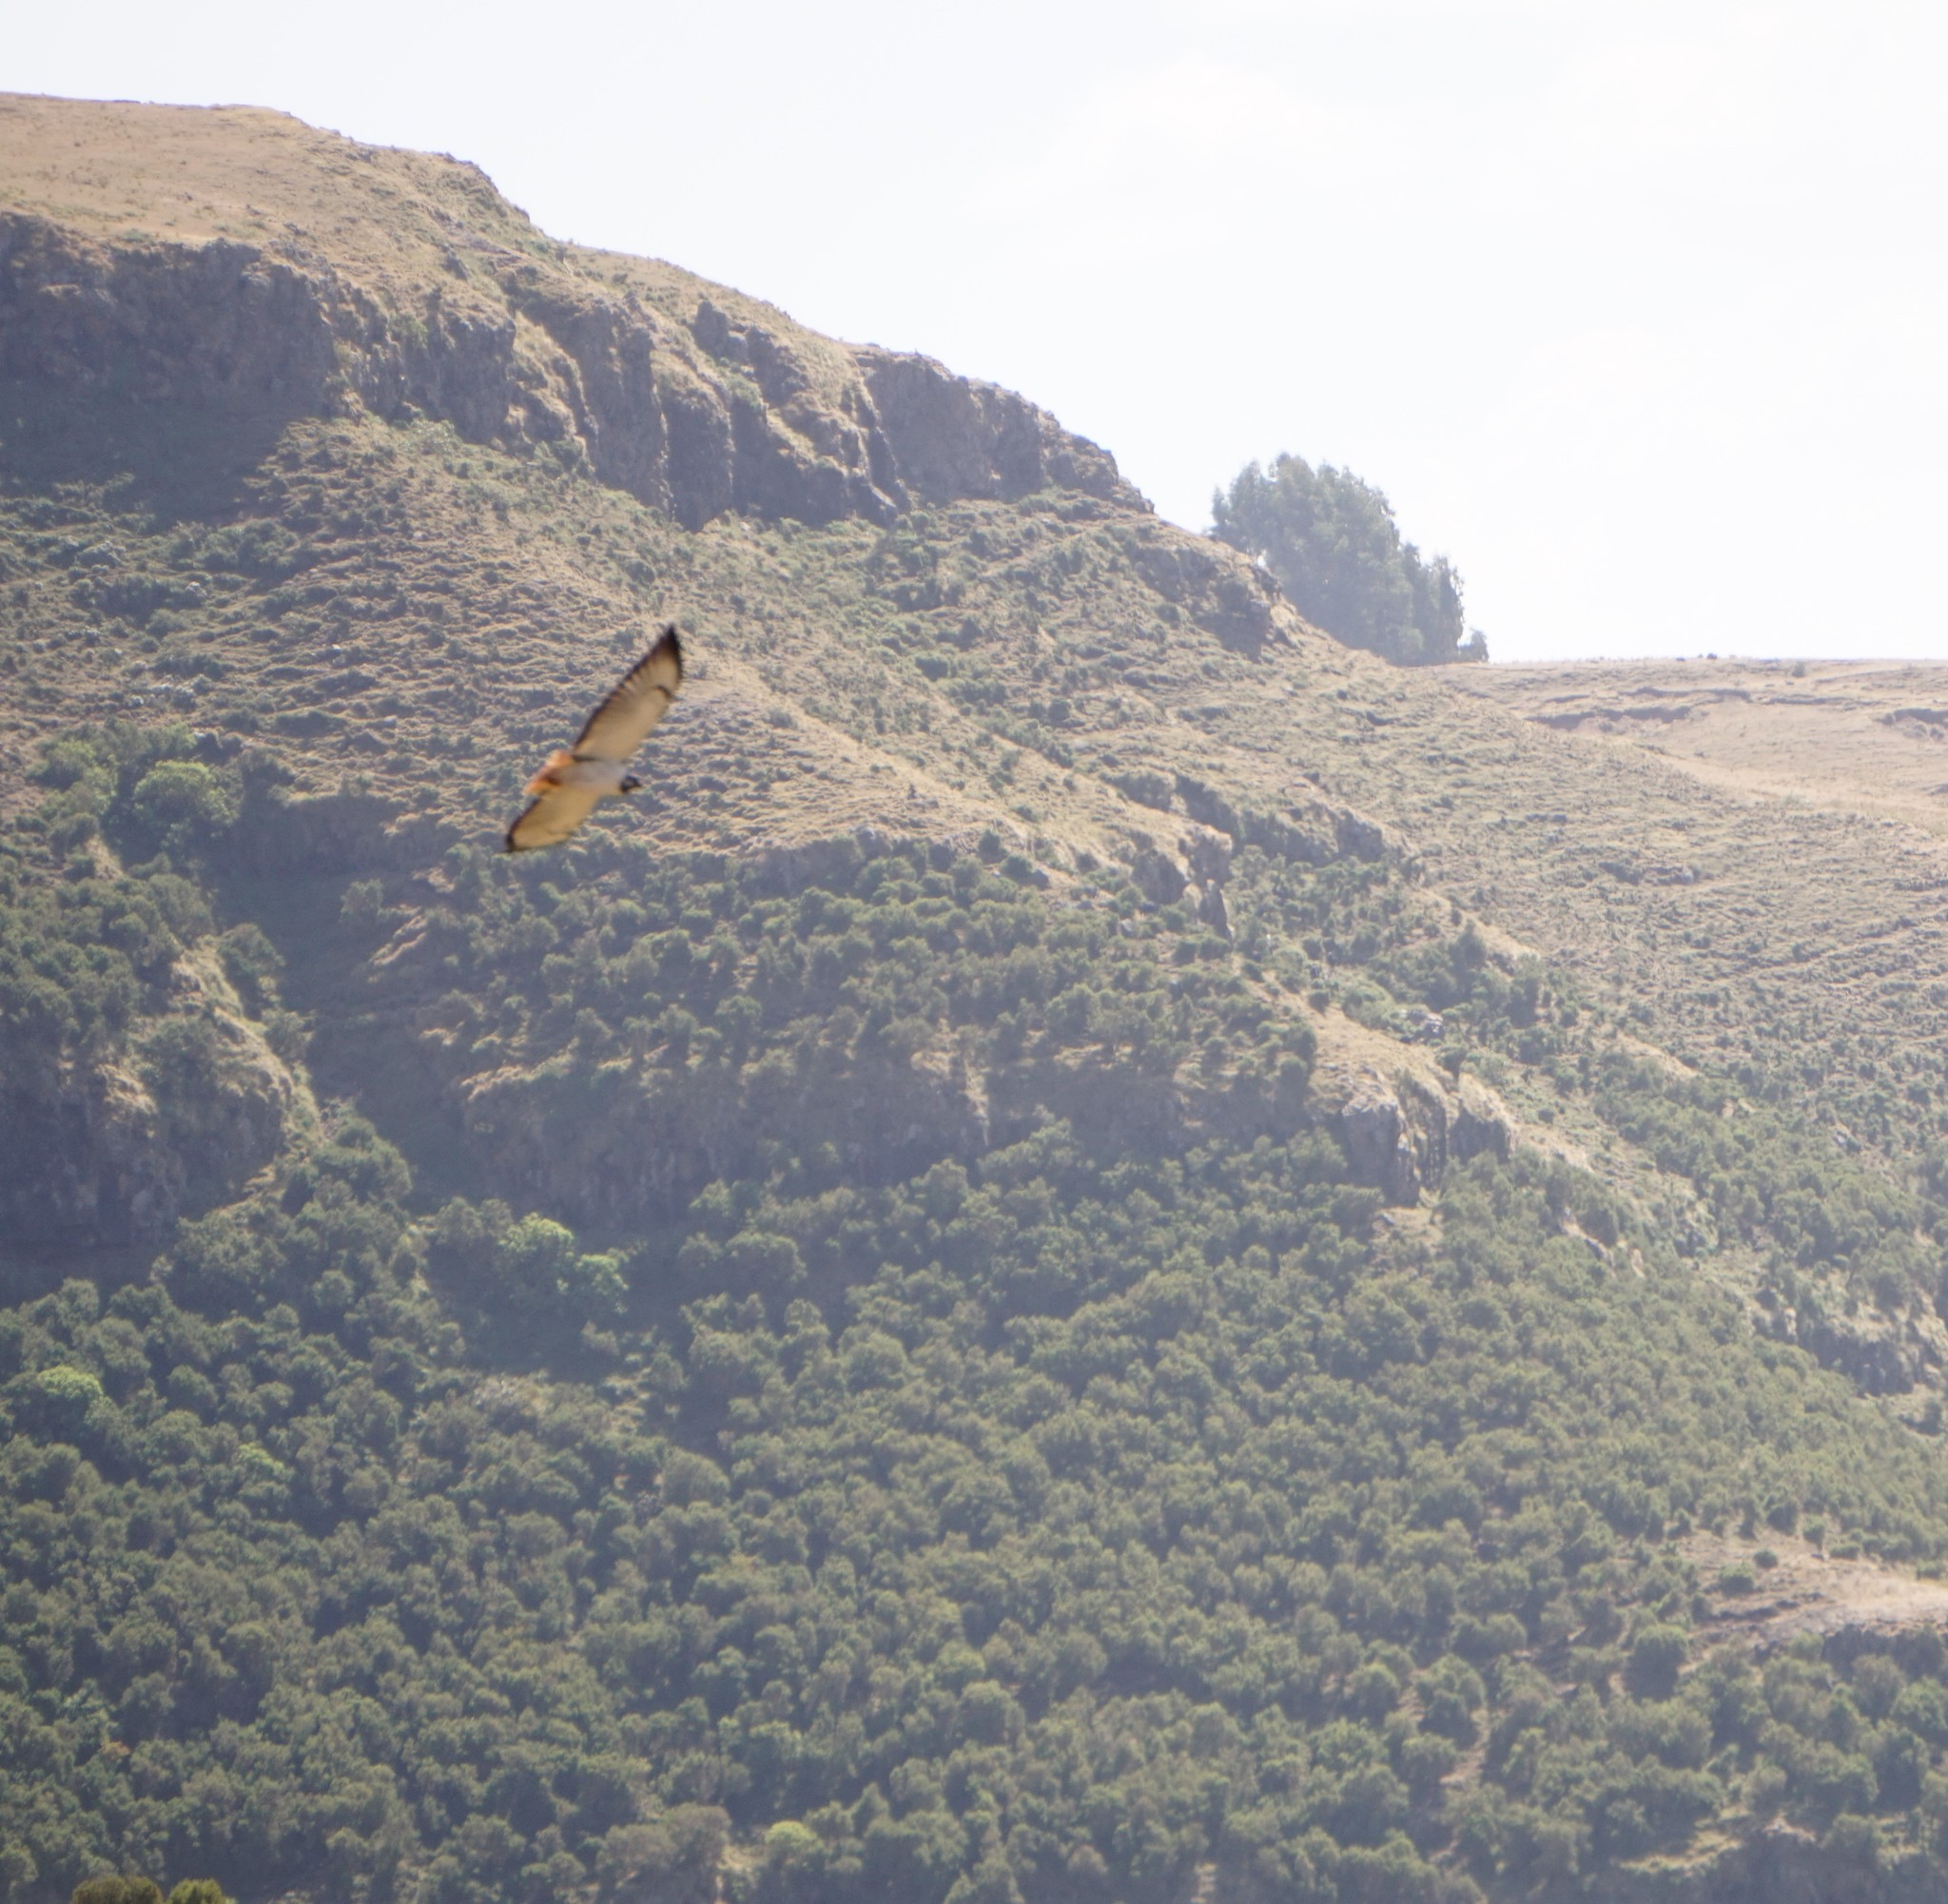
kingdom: Animalia
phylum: Chordata
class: Aves
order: Accipitriformes
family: Accipitridae
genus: Buteo
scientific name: Buteo augur
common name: Augur buzzard
